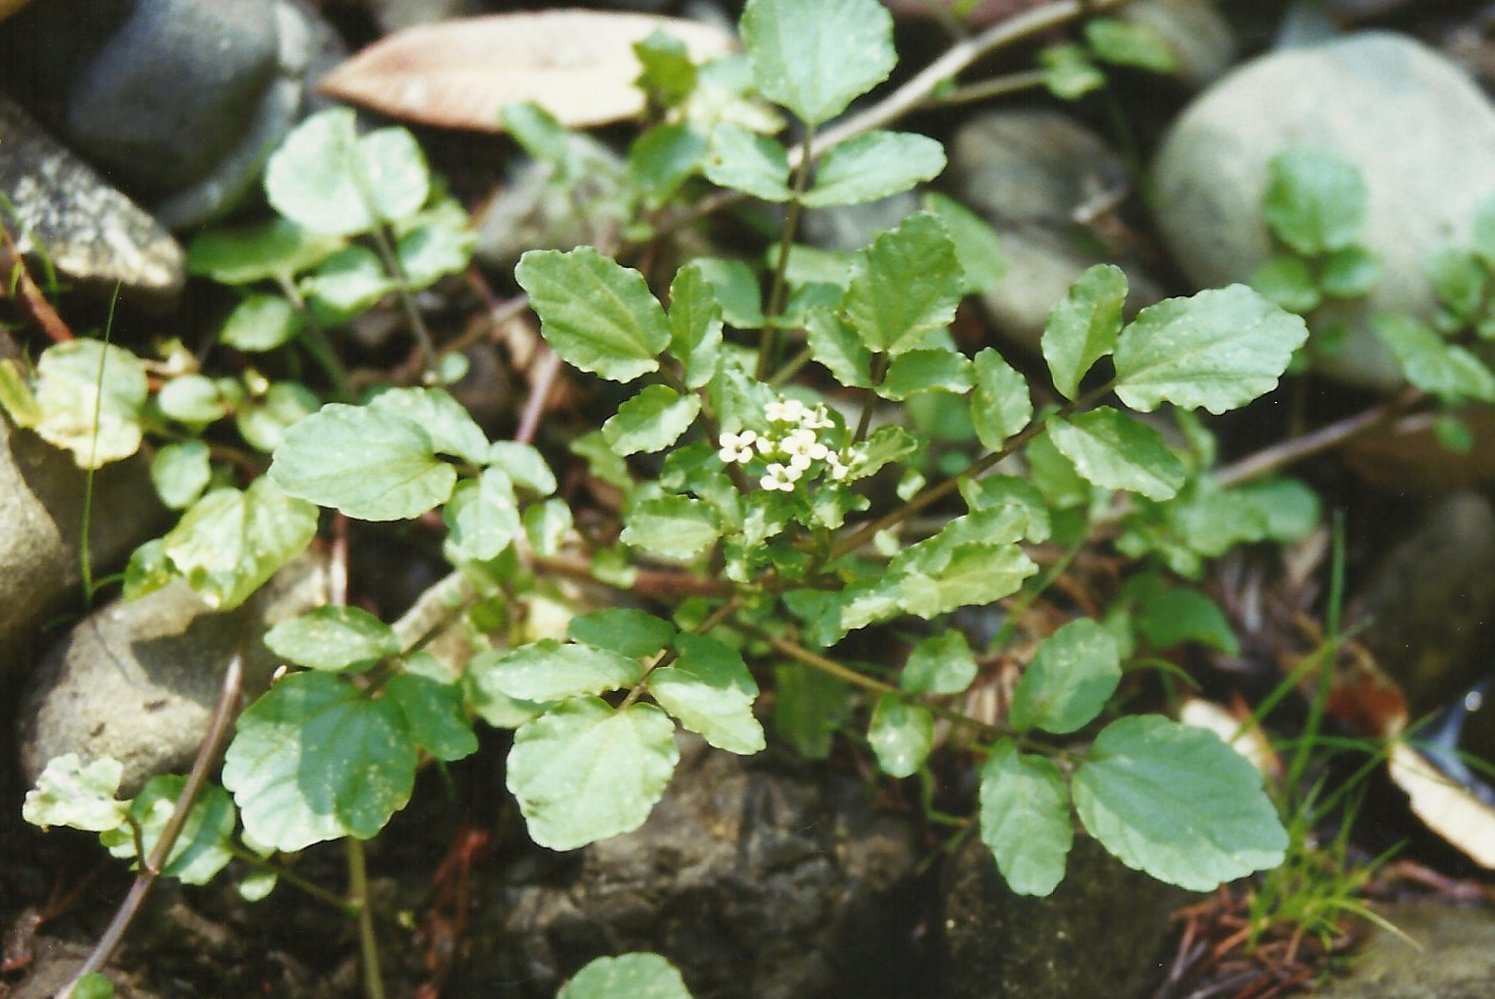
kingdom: Plantae
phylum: Tracheophyta
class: Magnoliopsida
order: Brassicales
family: Brassicaceae
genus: Nasturtium
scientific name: Nasturtium officinale
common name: Watercress
